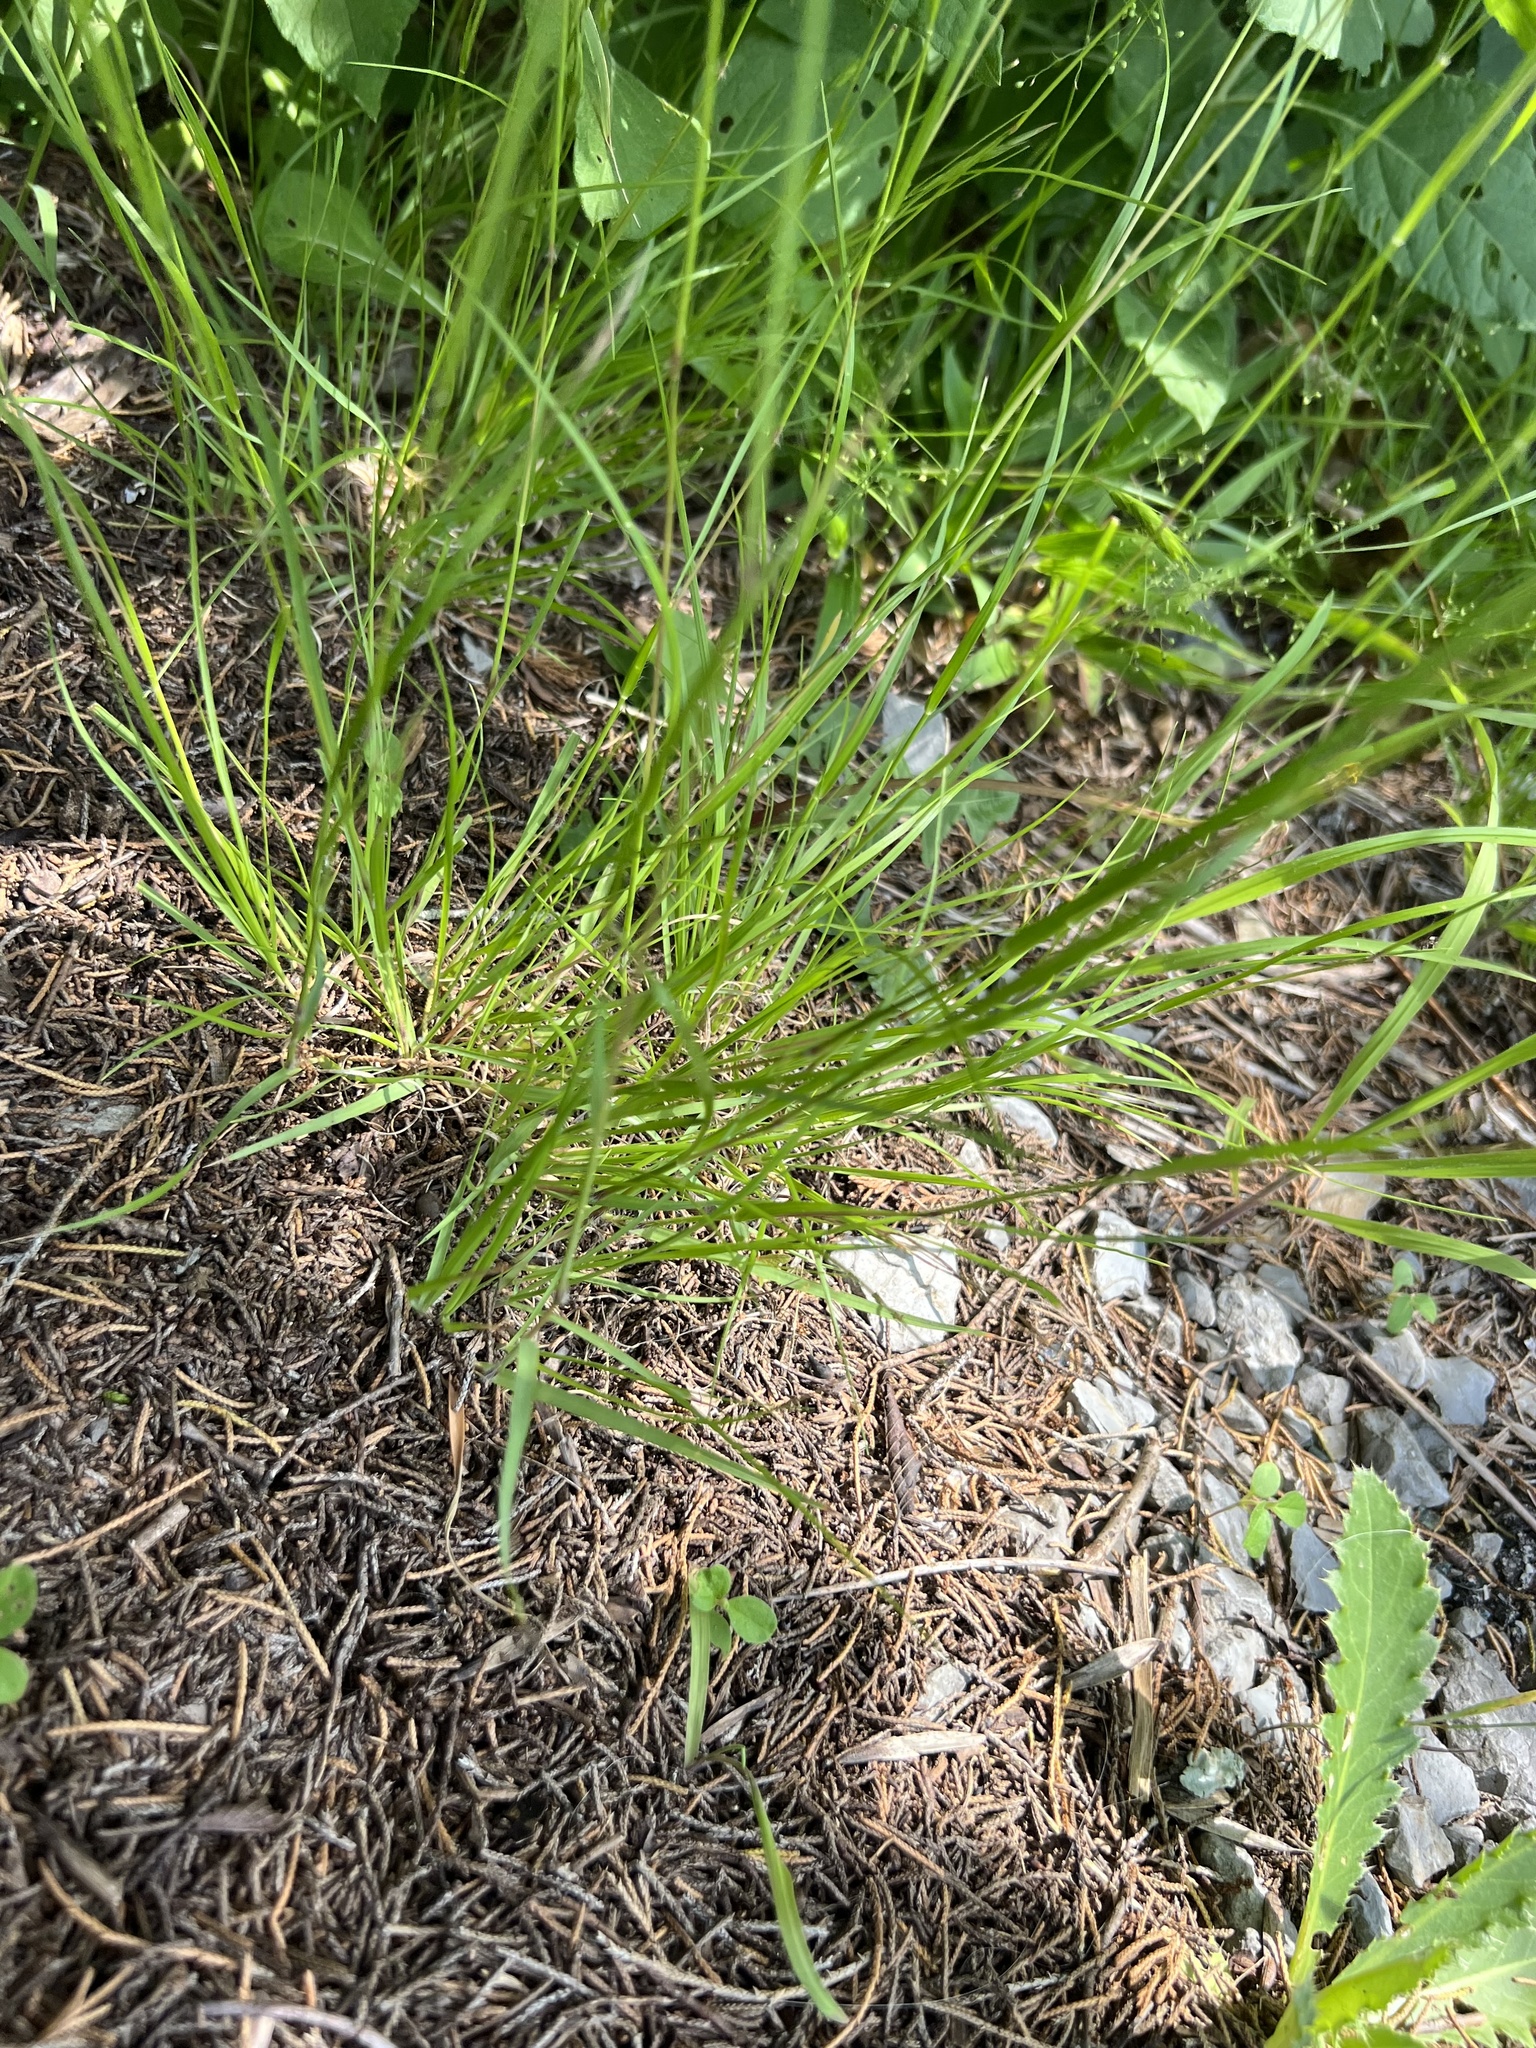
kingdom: Plantae
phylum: Tracheophyta
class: Liliopsida
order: Poales
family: Poaceae
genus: Danthonia
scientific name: Danthonia spicata
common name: Common wild oatgrass
